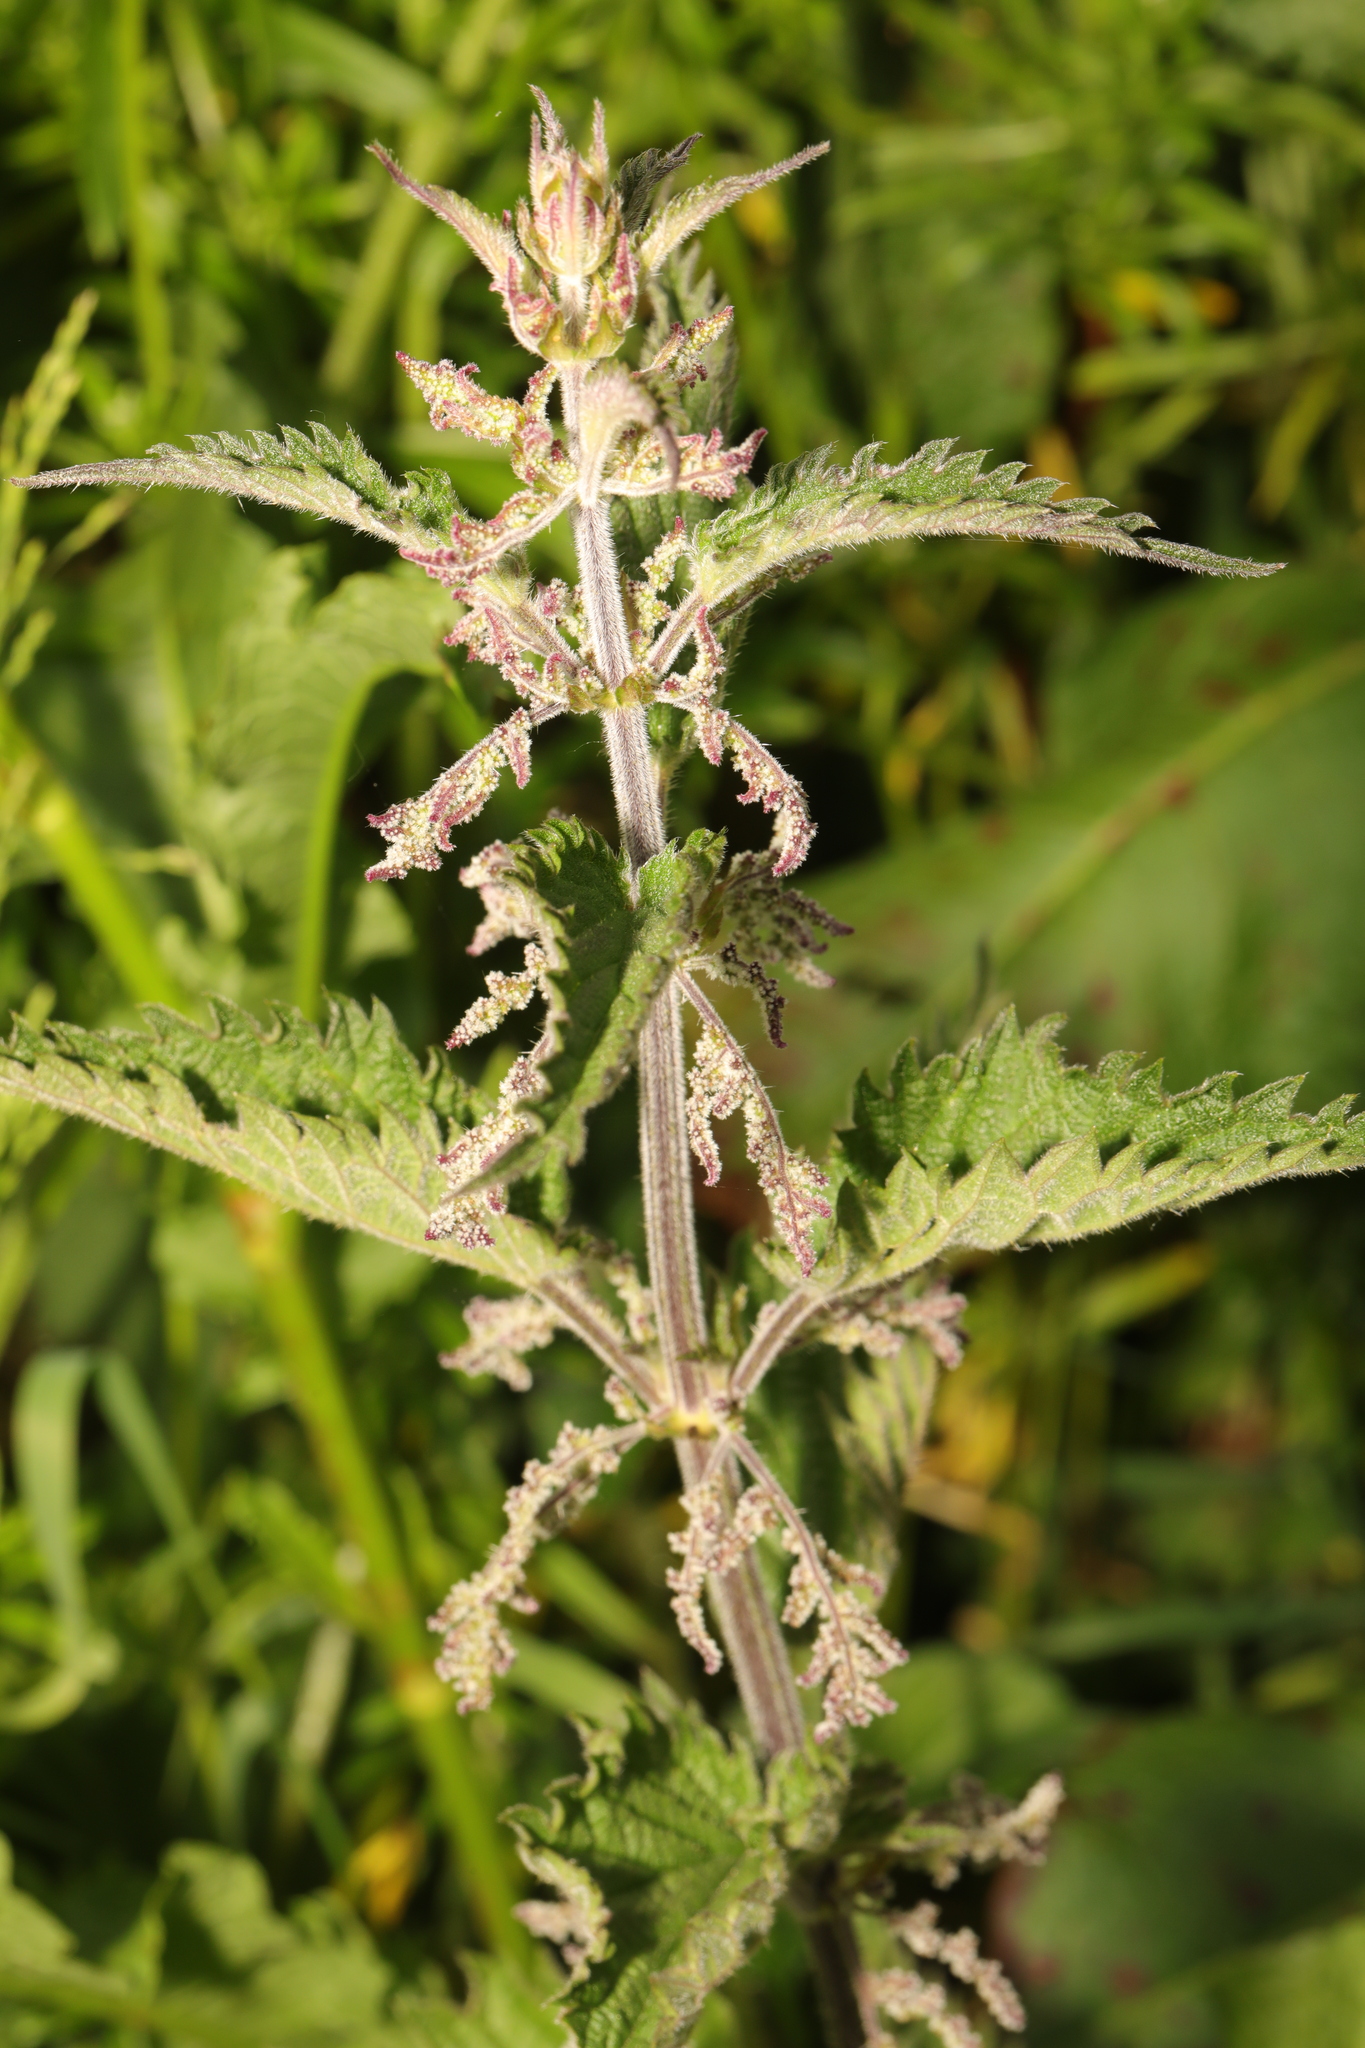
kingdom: Plantae
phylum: Tracheophyta
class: Magnoliopsida
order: Rosales
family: Urticaceae
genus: Urtica
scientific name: Urtica dioica
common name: Common nettle
